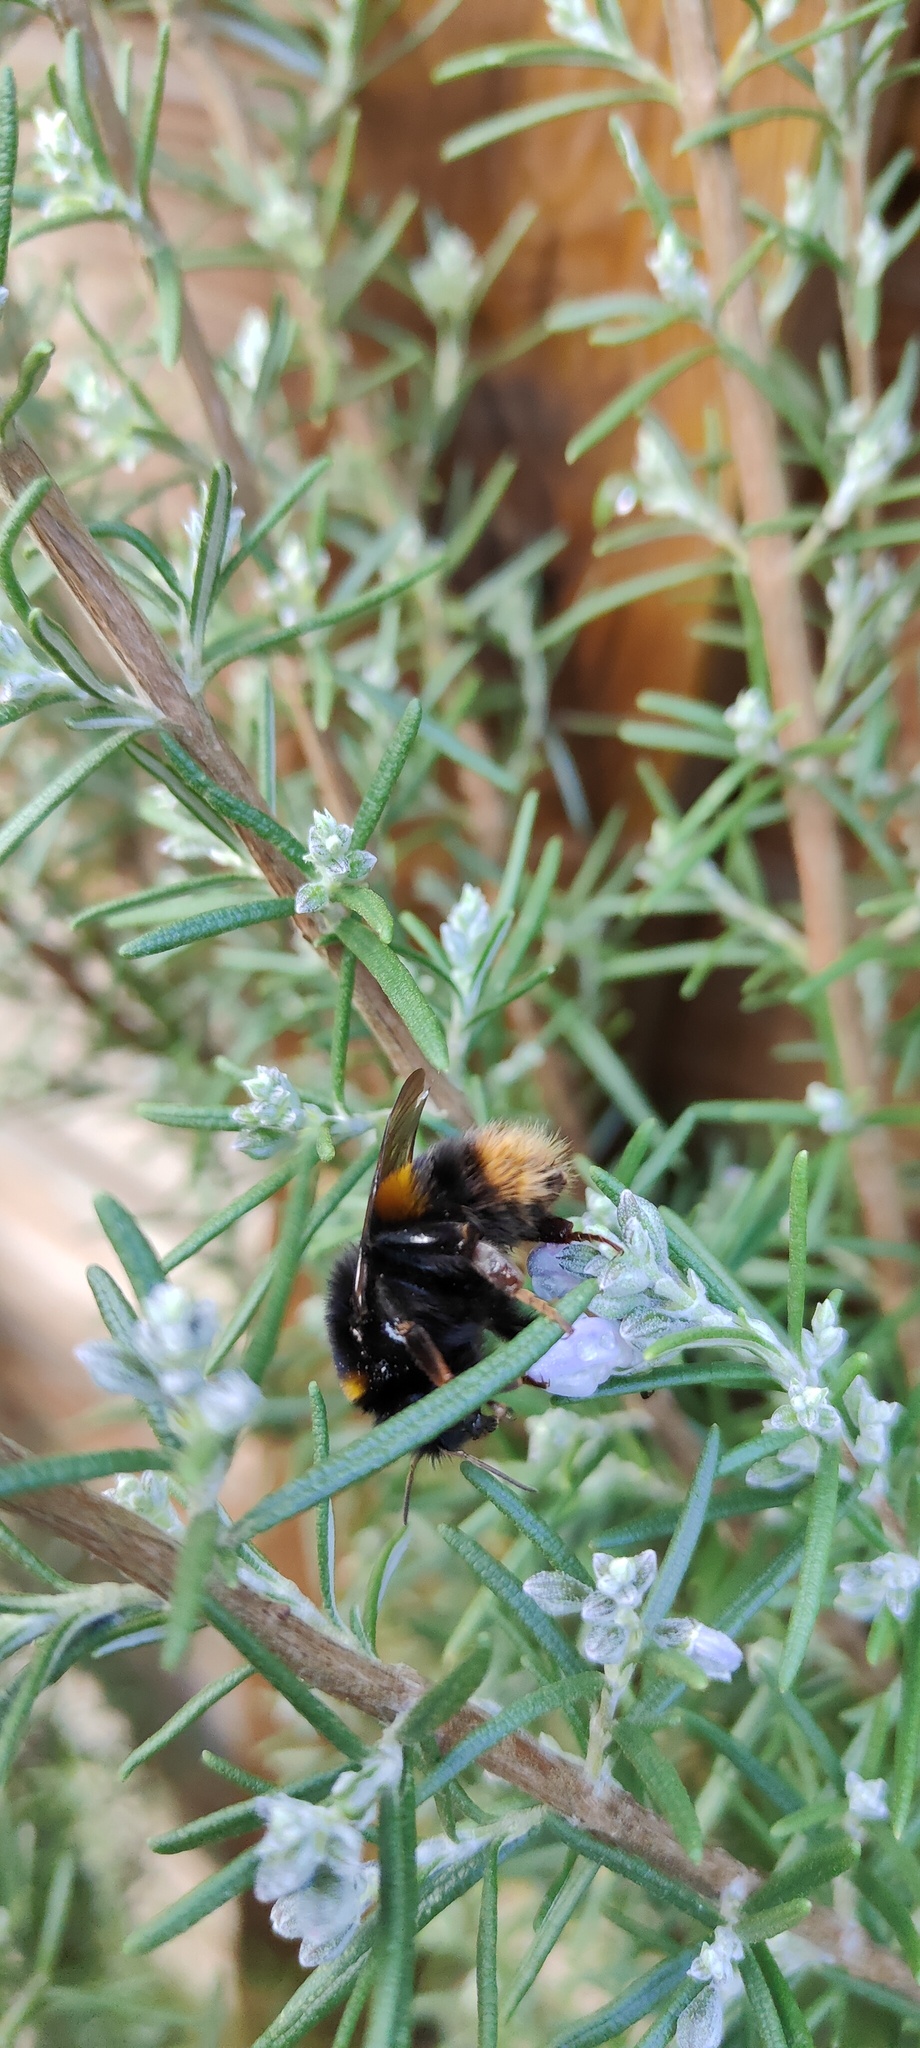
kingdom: Animalia
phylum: Arthropoda
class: Insecta
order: Hymenoptera
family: Apidae
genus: Bombus
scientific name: Bombus terrestris
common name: Buff-tailed bumblebee
